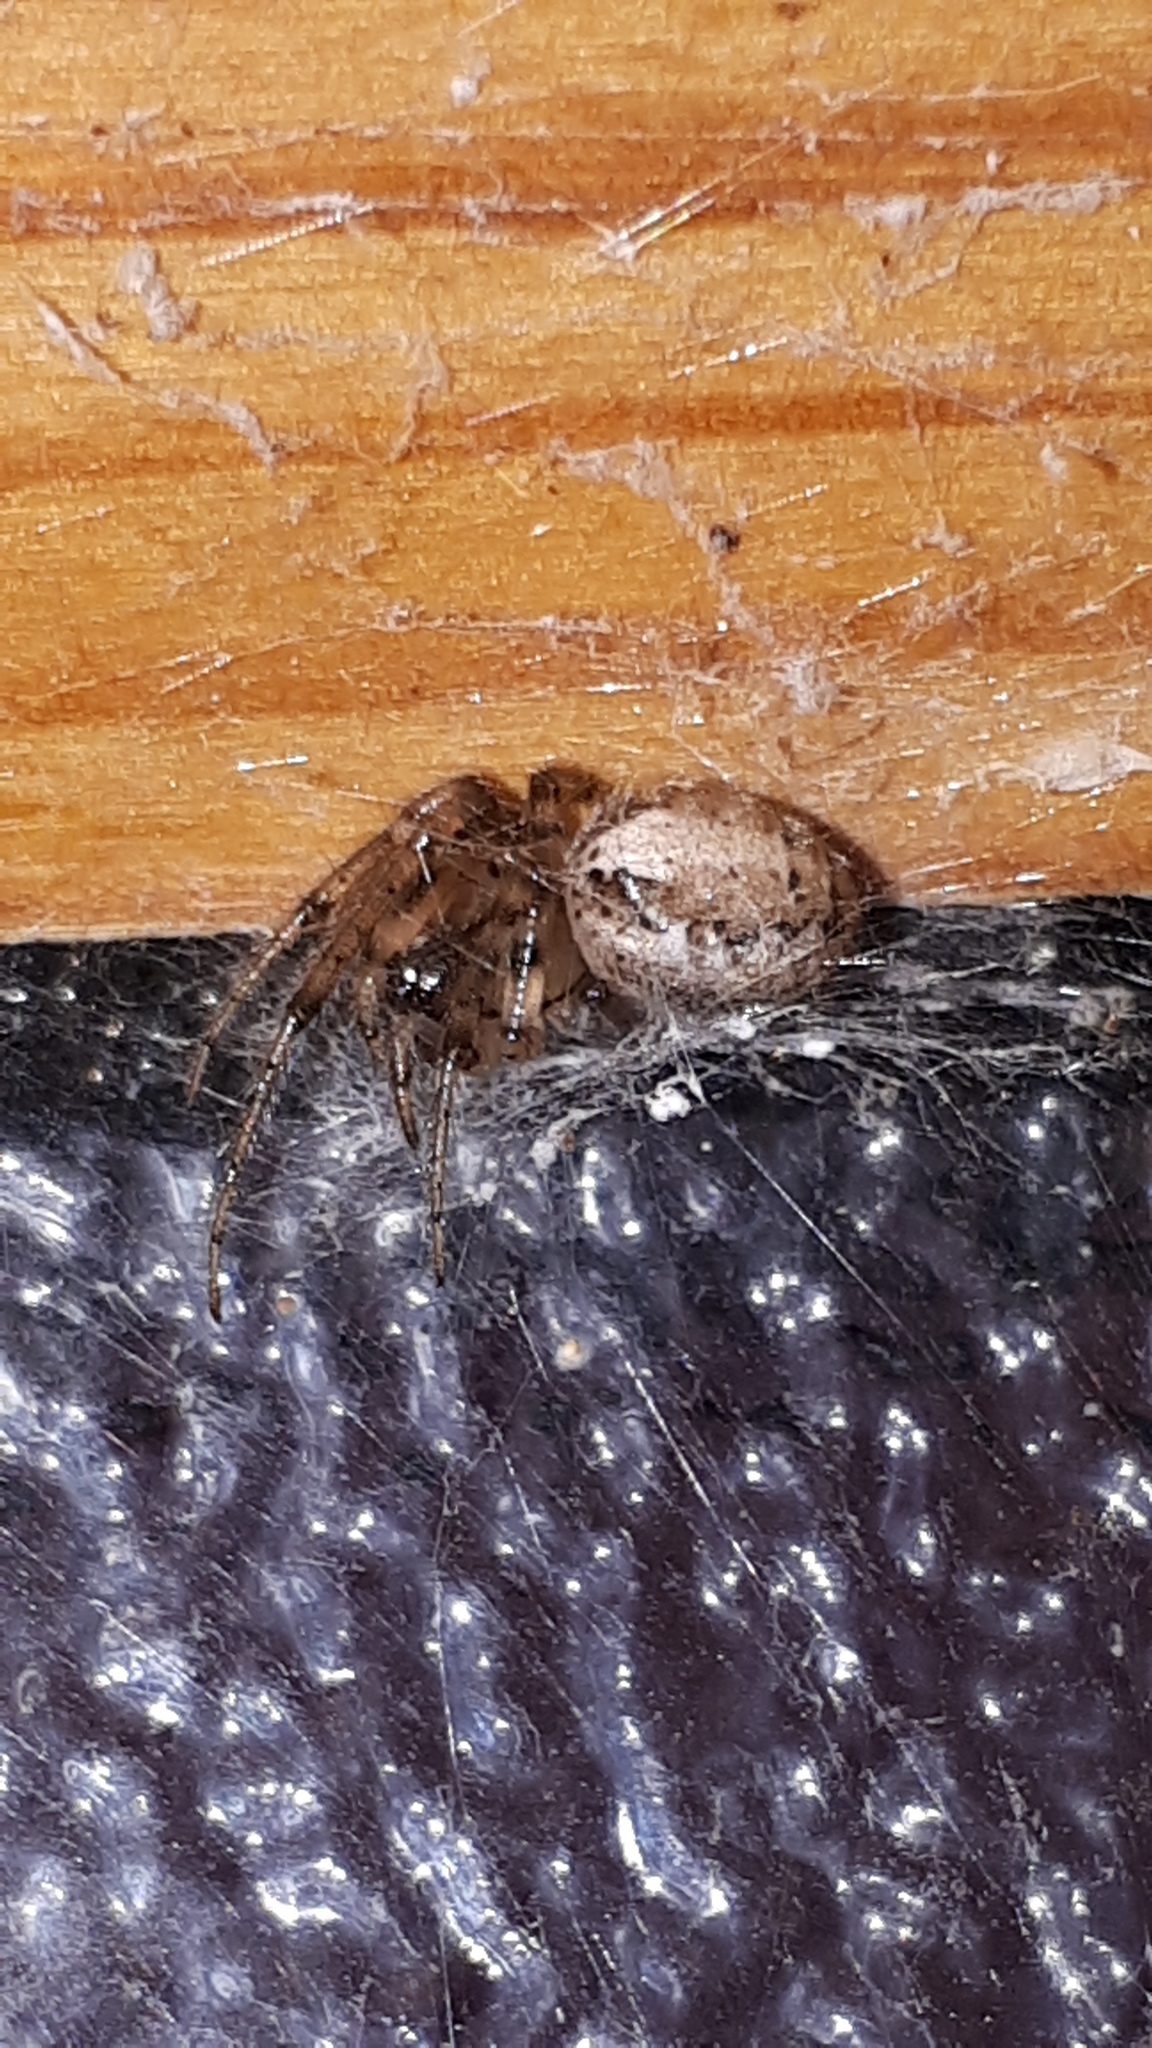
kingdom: Animalia
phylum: Arthropoda
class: Arachnida
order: Araneae
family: Araneidae
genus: Zygiella
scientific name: Zygiella x-notata
